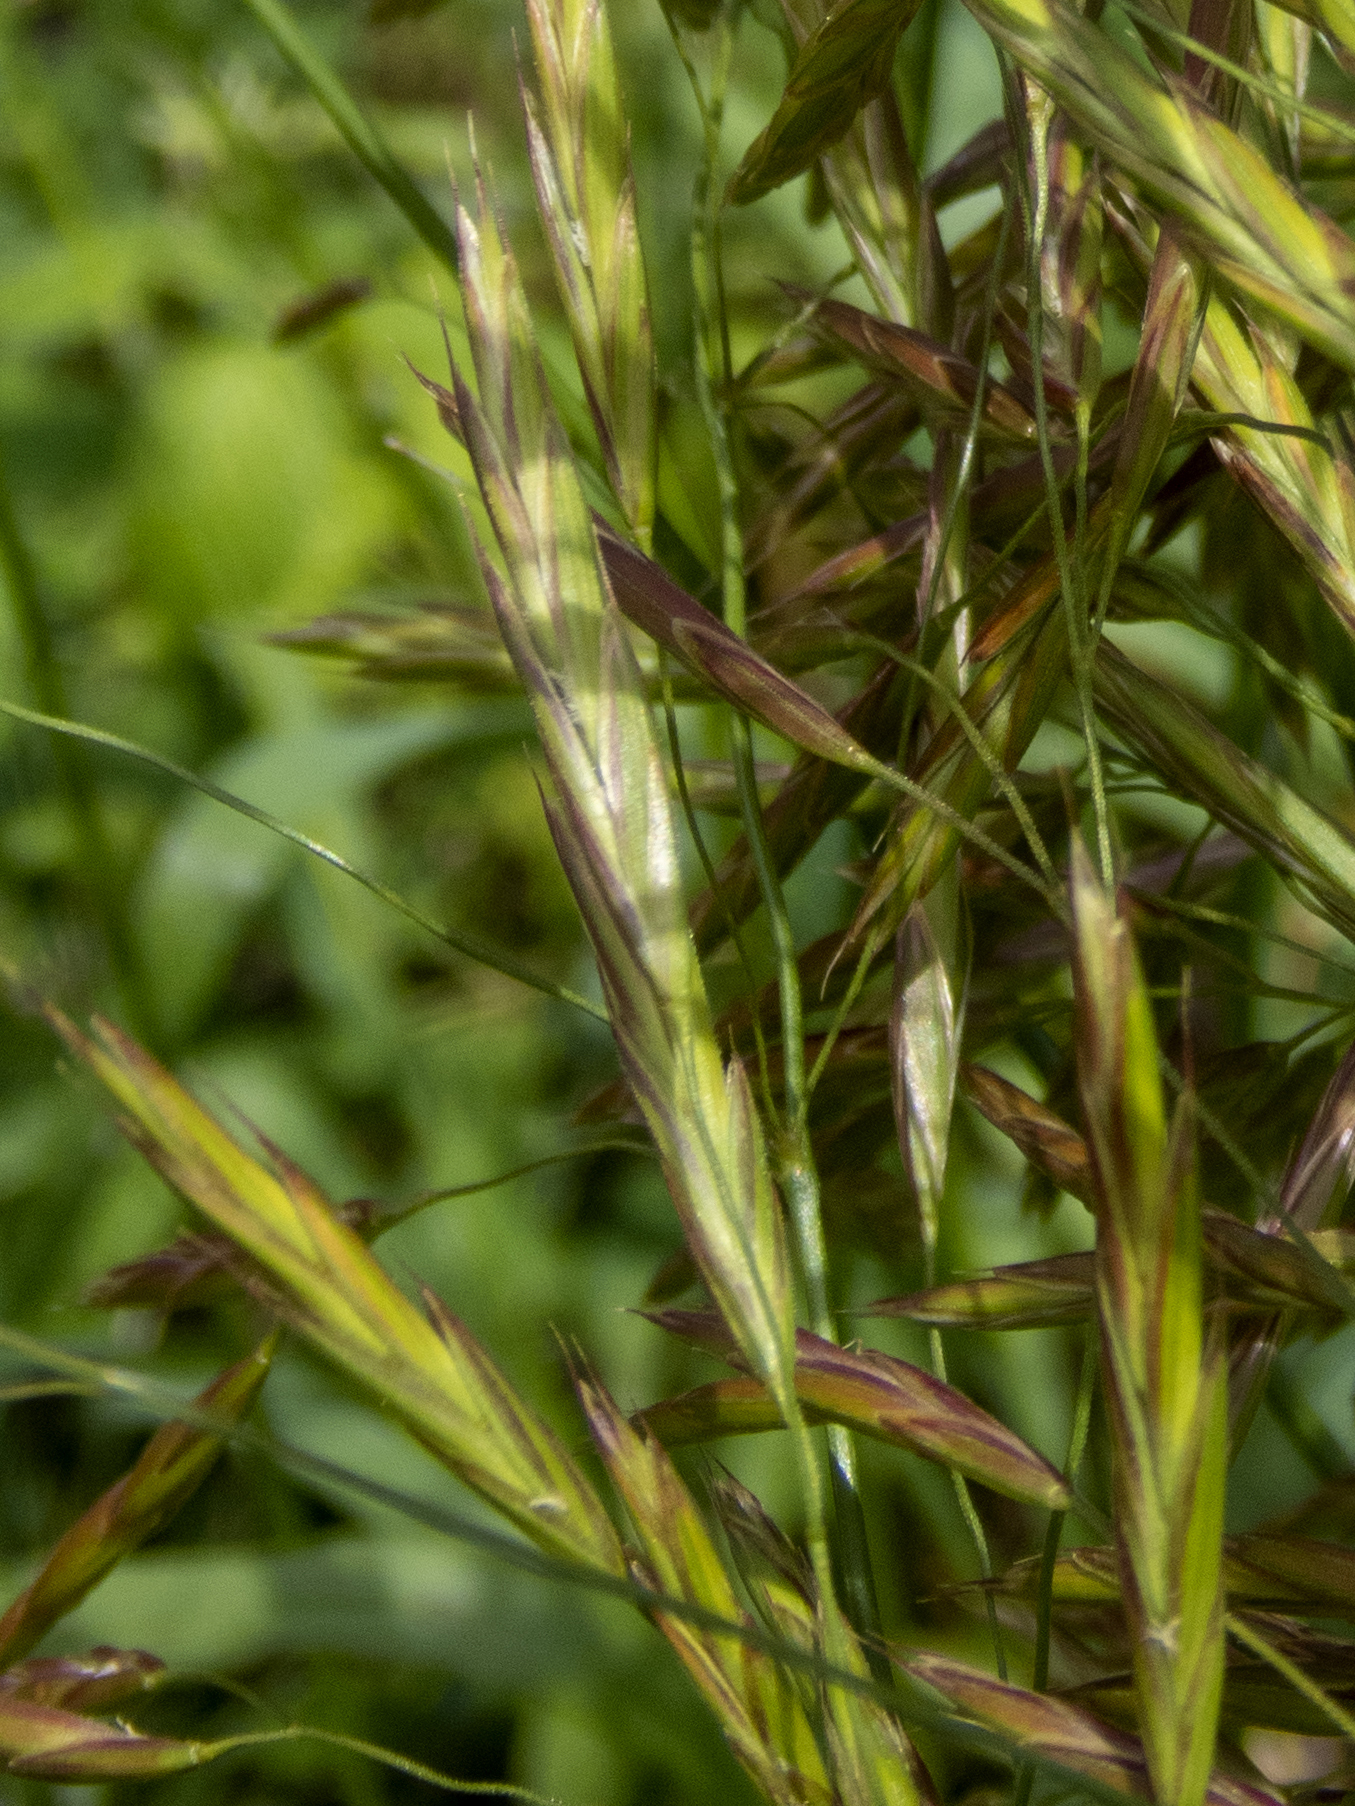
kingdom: Plantae
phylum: Tracheophyta
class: Liliopsida
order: Poales
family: Poaceae
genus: Bromus
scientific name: Bromus inermis
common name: Smooth brome
